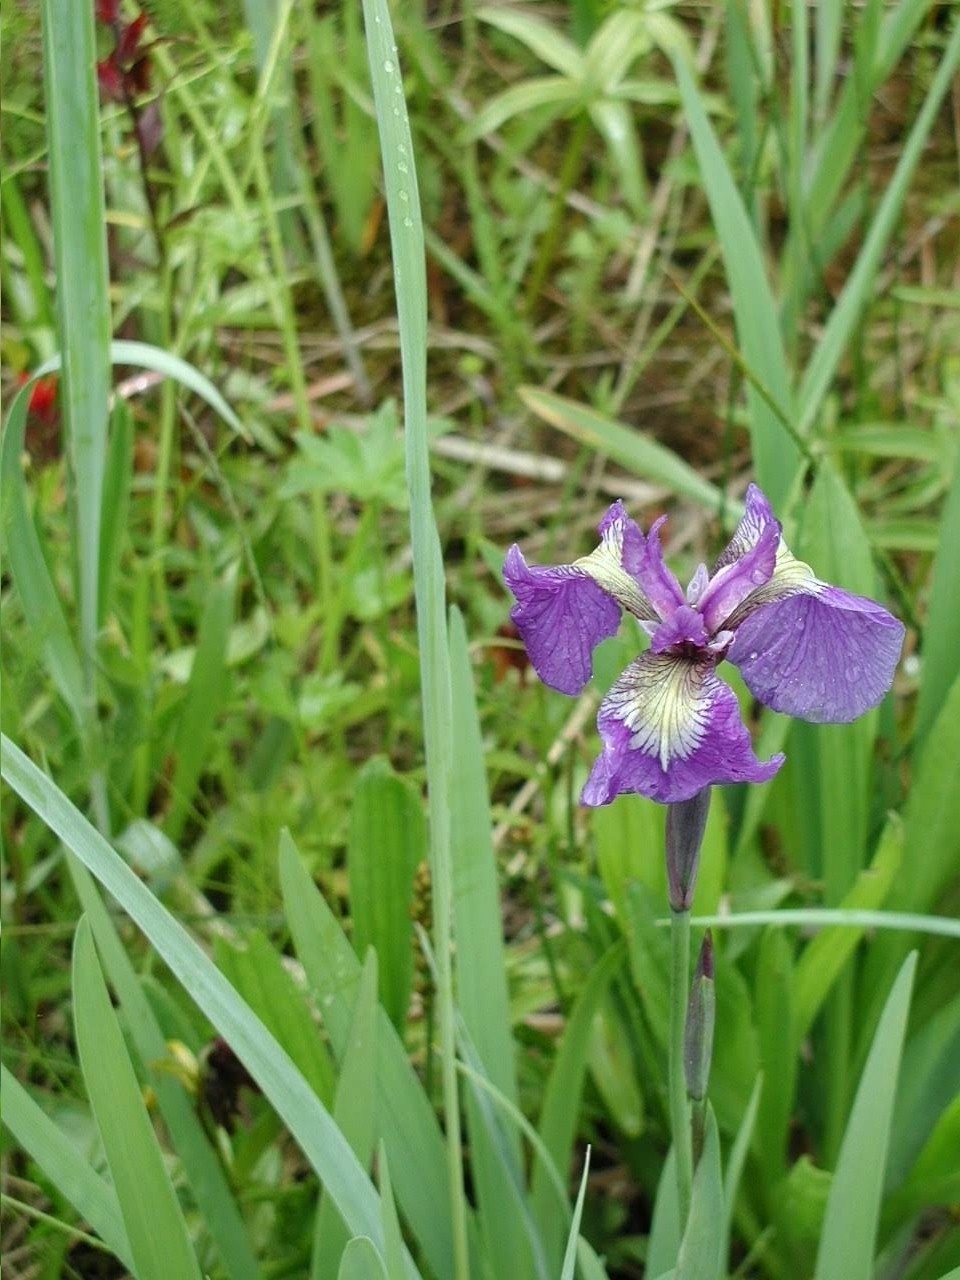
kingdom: Plantae
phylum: Tracheophyta
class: Liliopsida
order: Asparagales
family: Iridaceae
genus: Iris
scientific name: Iris setosa
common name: Arctic blue flag
